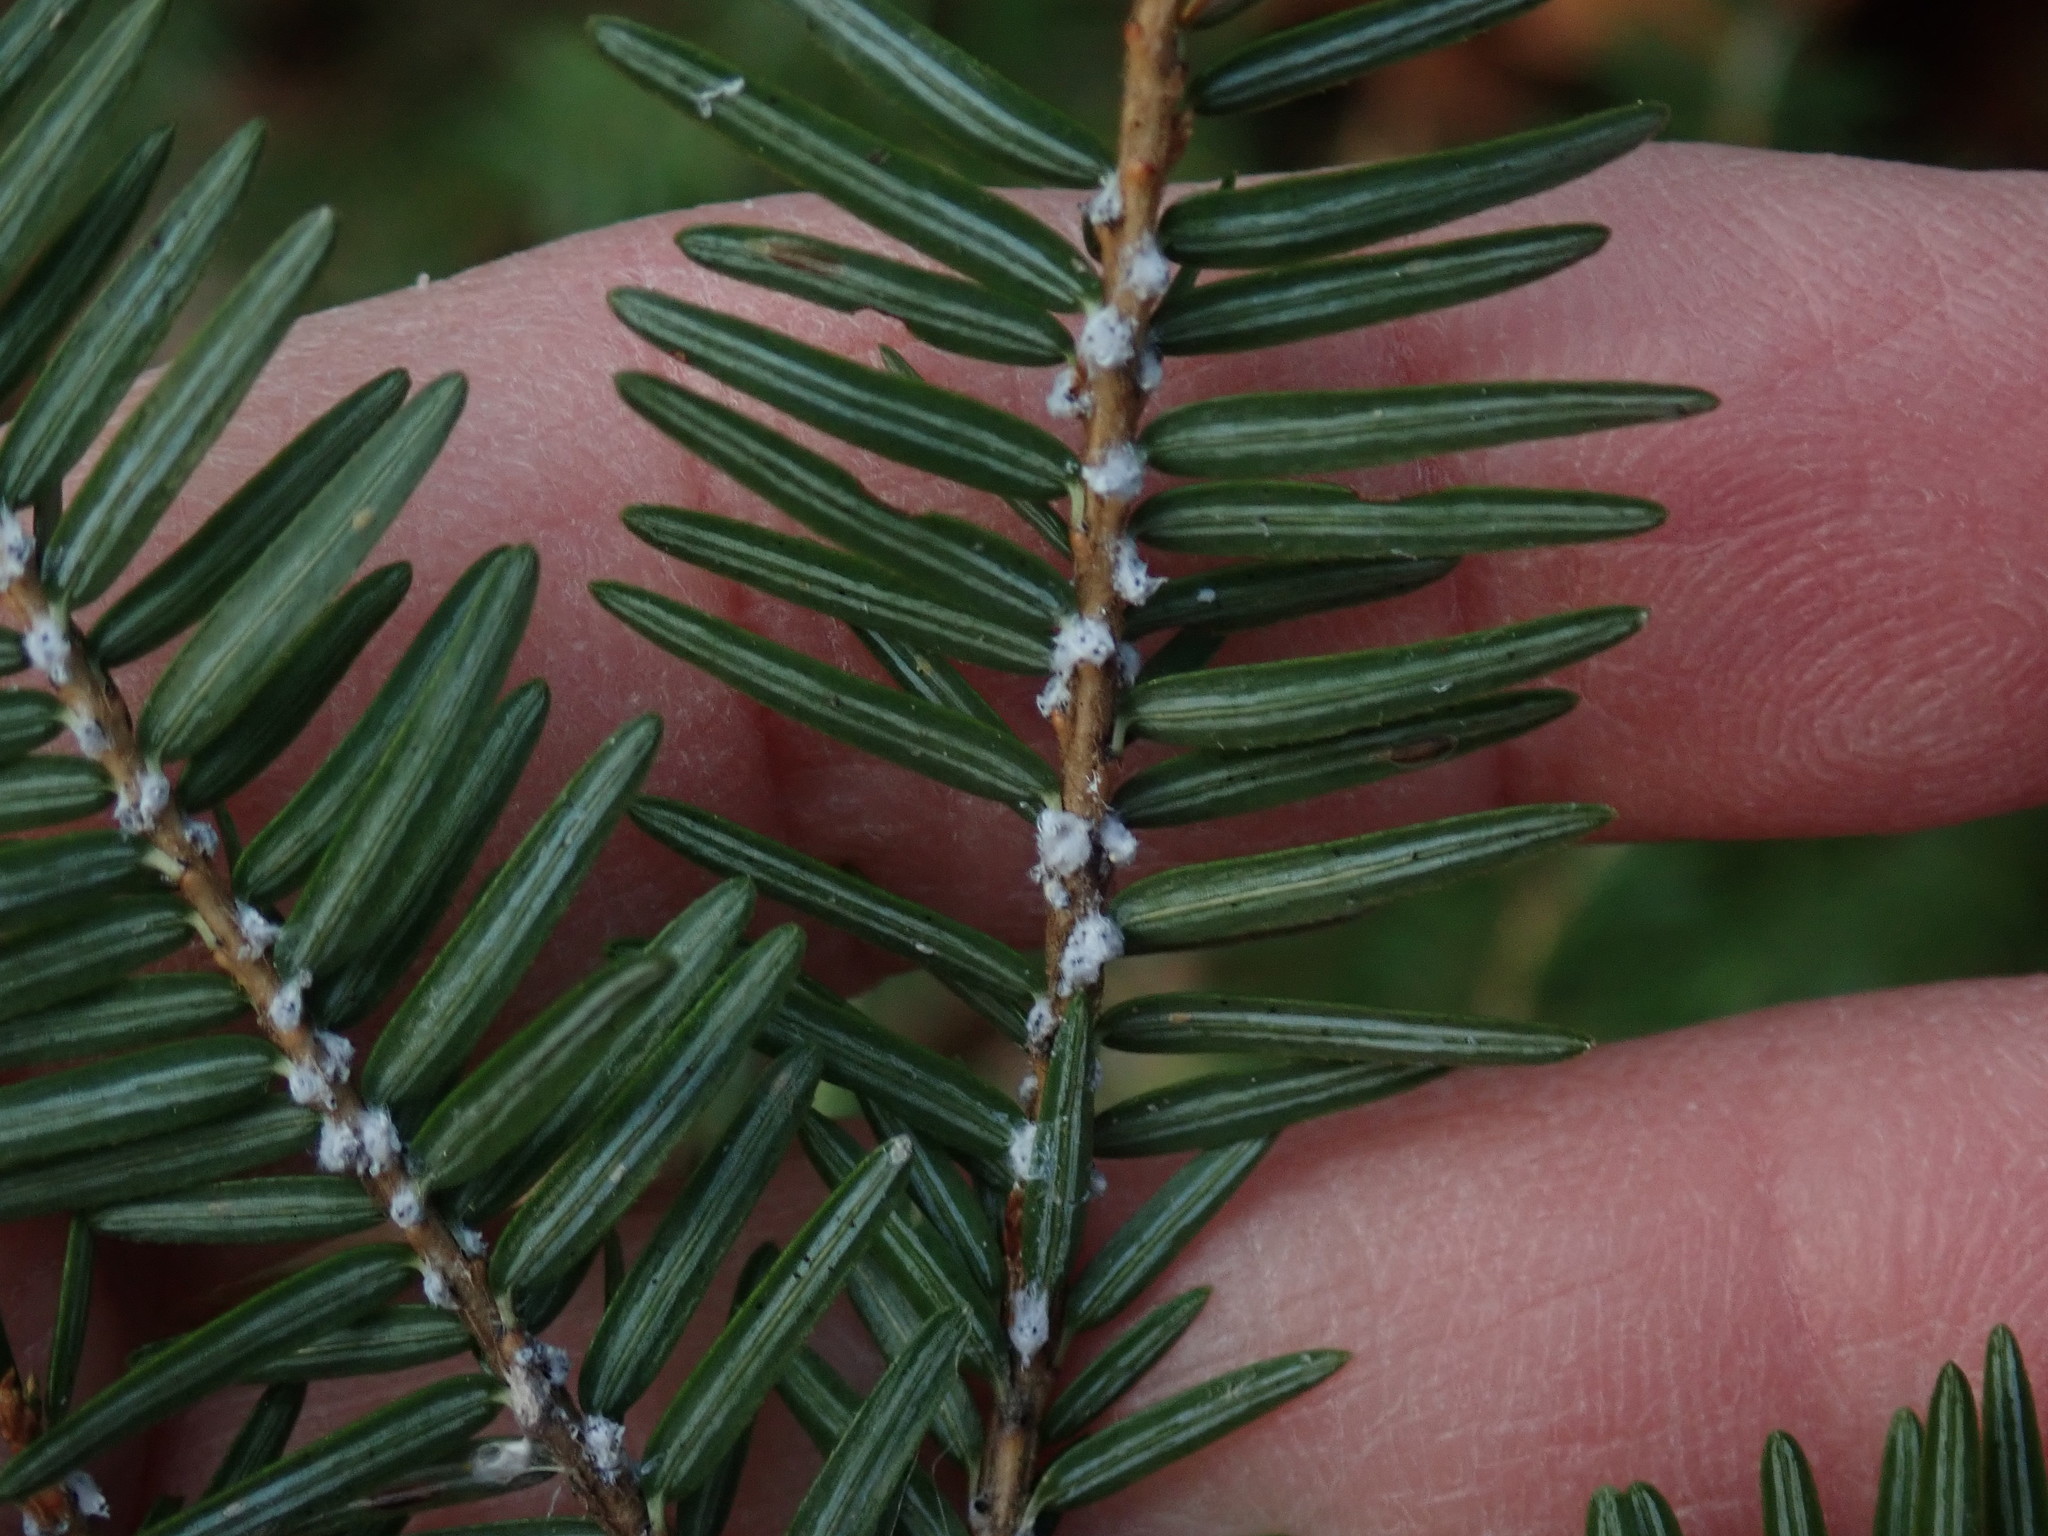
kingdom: Animalia
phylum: Arthropoda
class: Insecta
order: Hemiptera
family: Adelgidae
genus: Adelges
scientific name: Adelges tsugae
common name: Hemlock woolly adelgid
